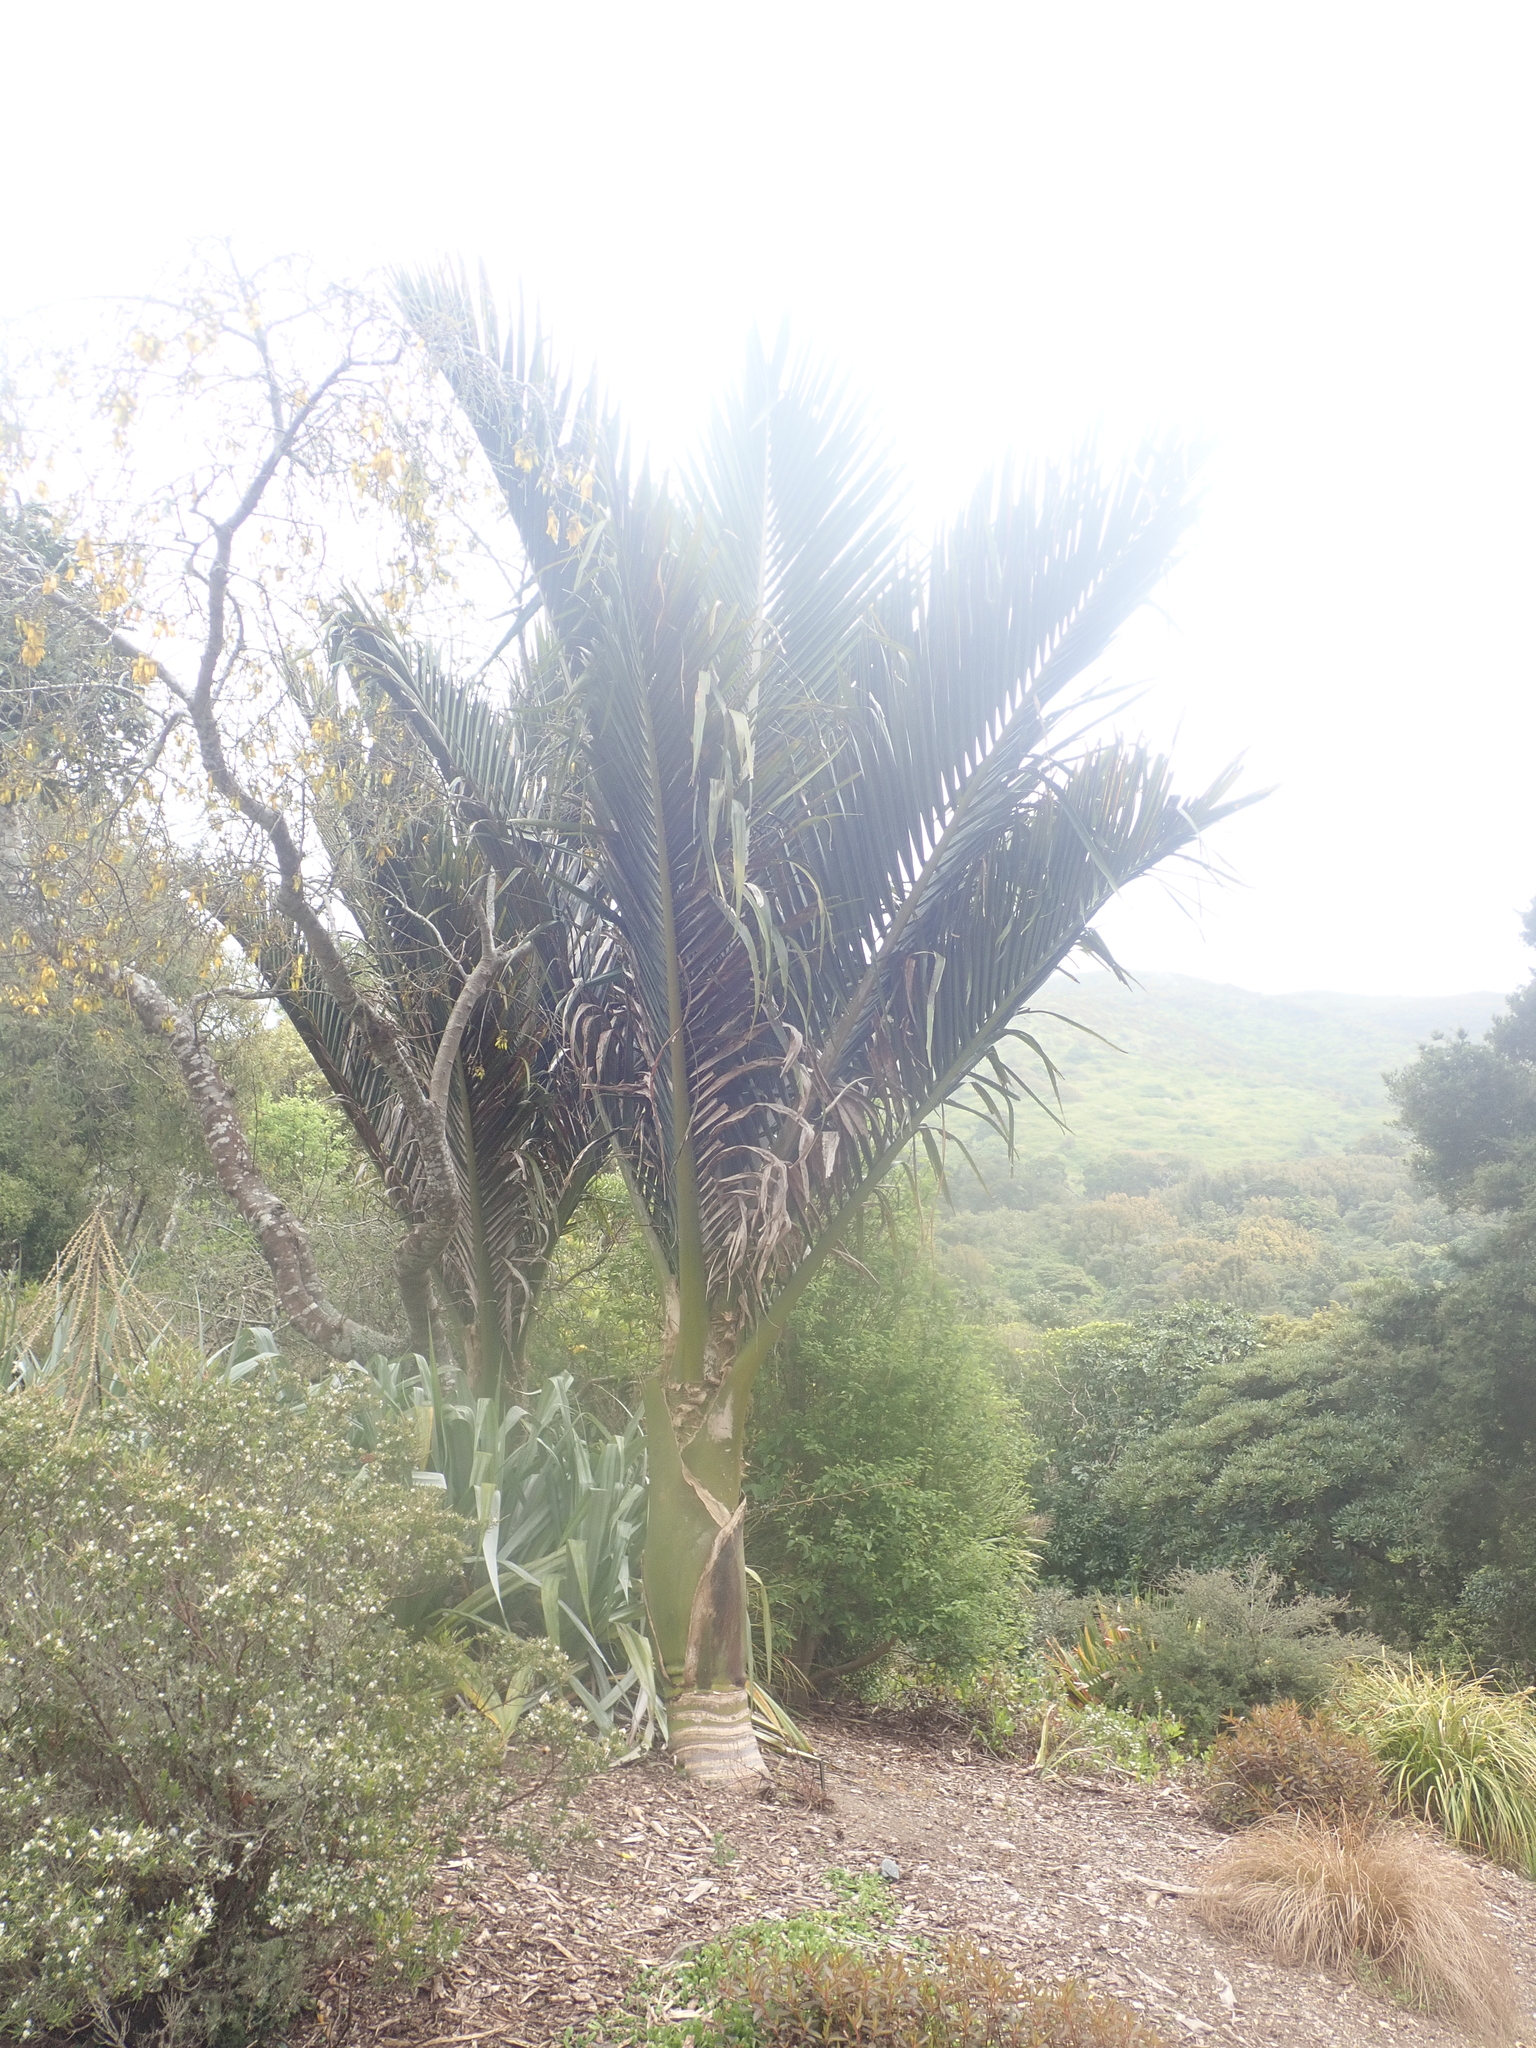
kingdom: Plantae
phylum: Tracheophyta
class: Liliopsida
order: Arecales
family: Arecaceae
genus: Rhopalostylis
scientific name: Rhopalostylis sapida
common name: Feather-duster palm
